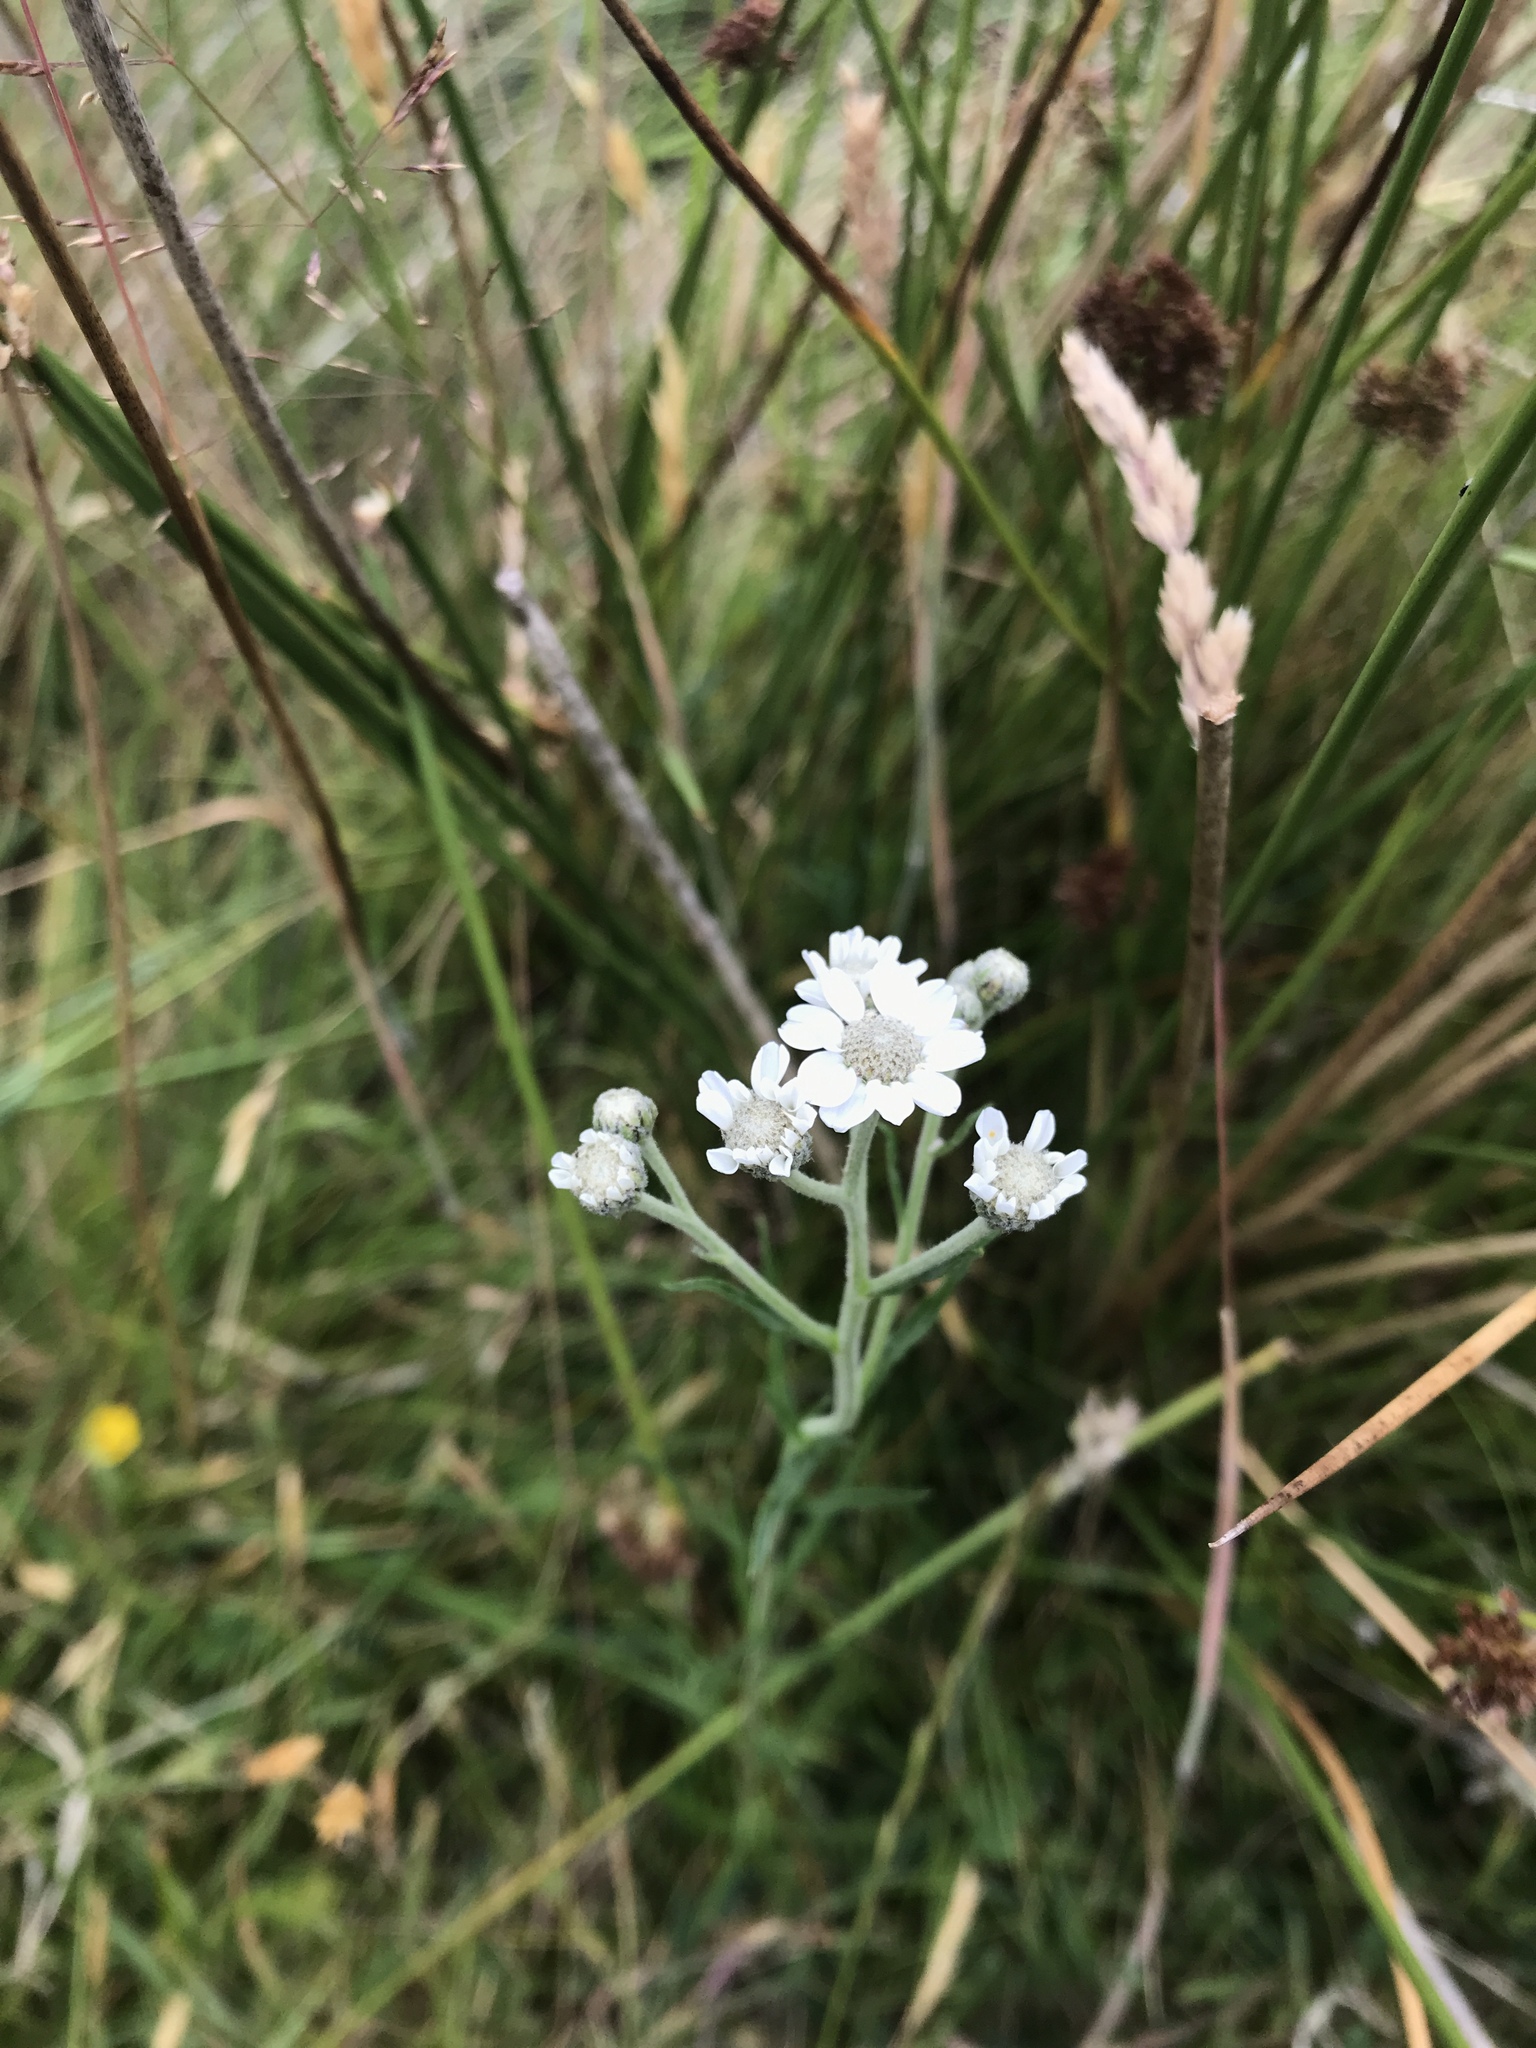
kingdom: Plantae
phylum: Tracheophyta
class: Magnoliopsida
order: Asterales
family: Asteraceae
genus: Achillea
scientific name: Achillea ptarmica
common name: Sneezeweed
